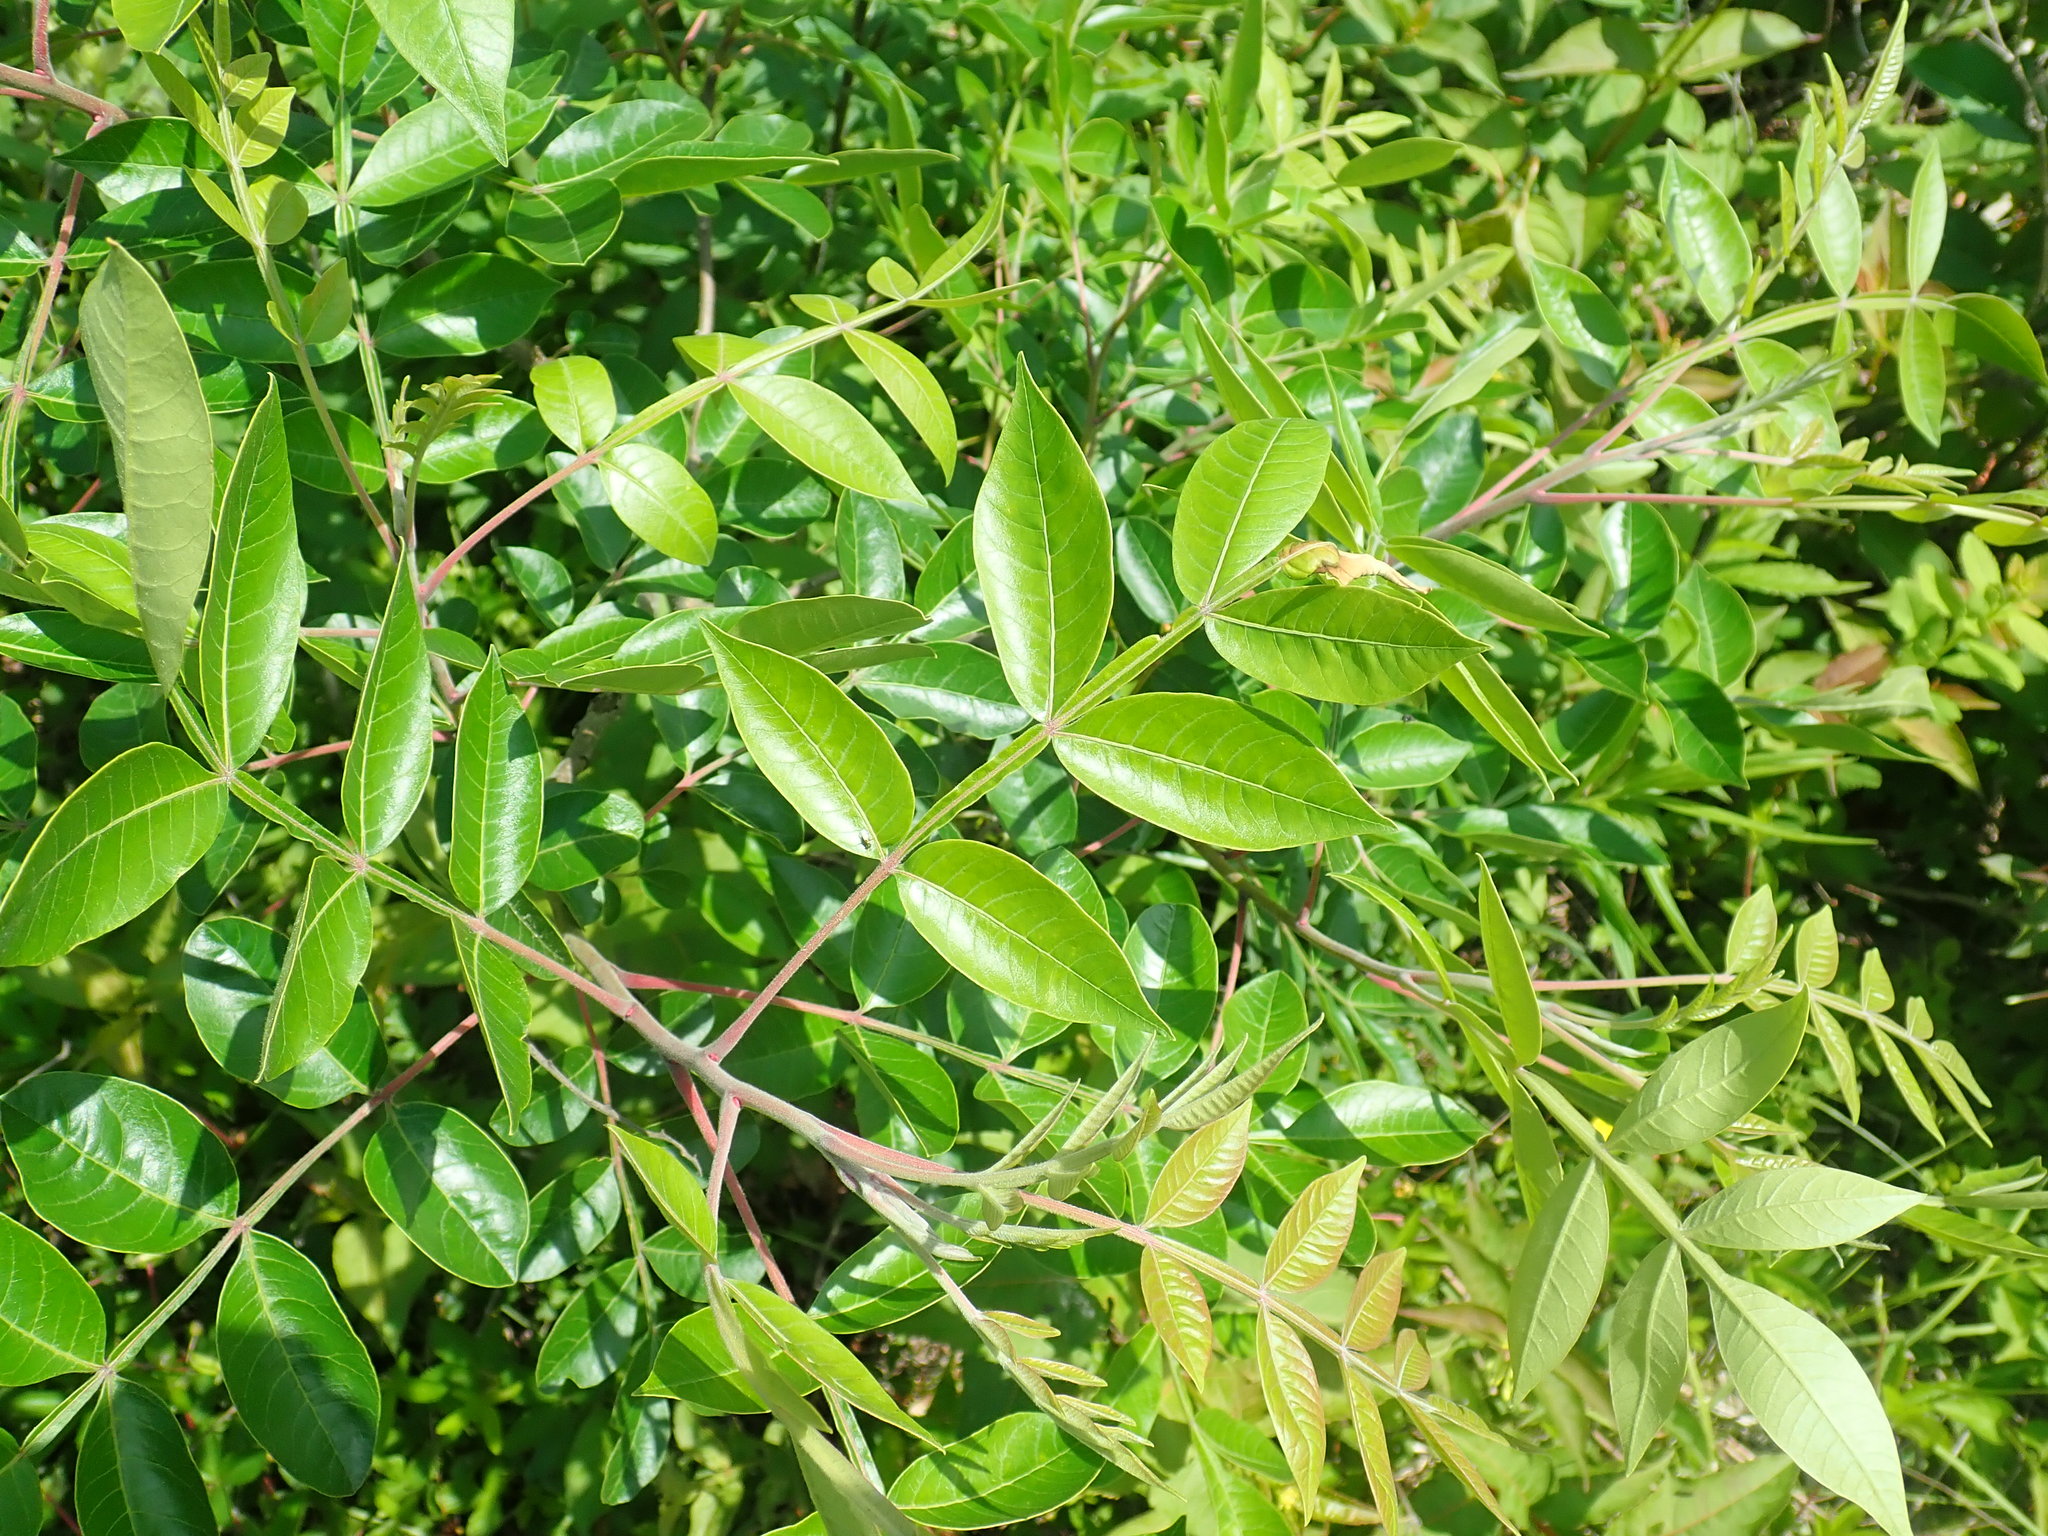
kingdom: Plantae
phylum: Tracheophyta
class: Magnoliopsida
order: Sapindales
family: Anacardiaceae
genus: Rhus
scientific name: Rhus copallina
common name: Shining sumac
